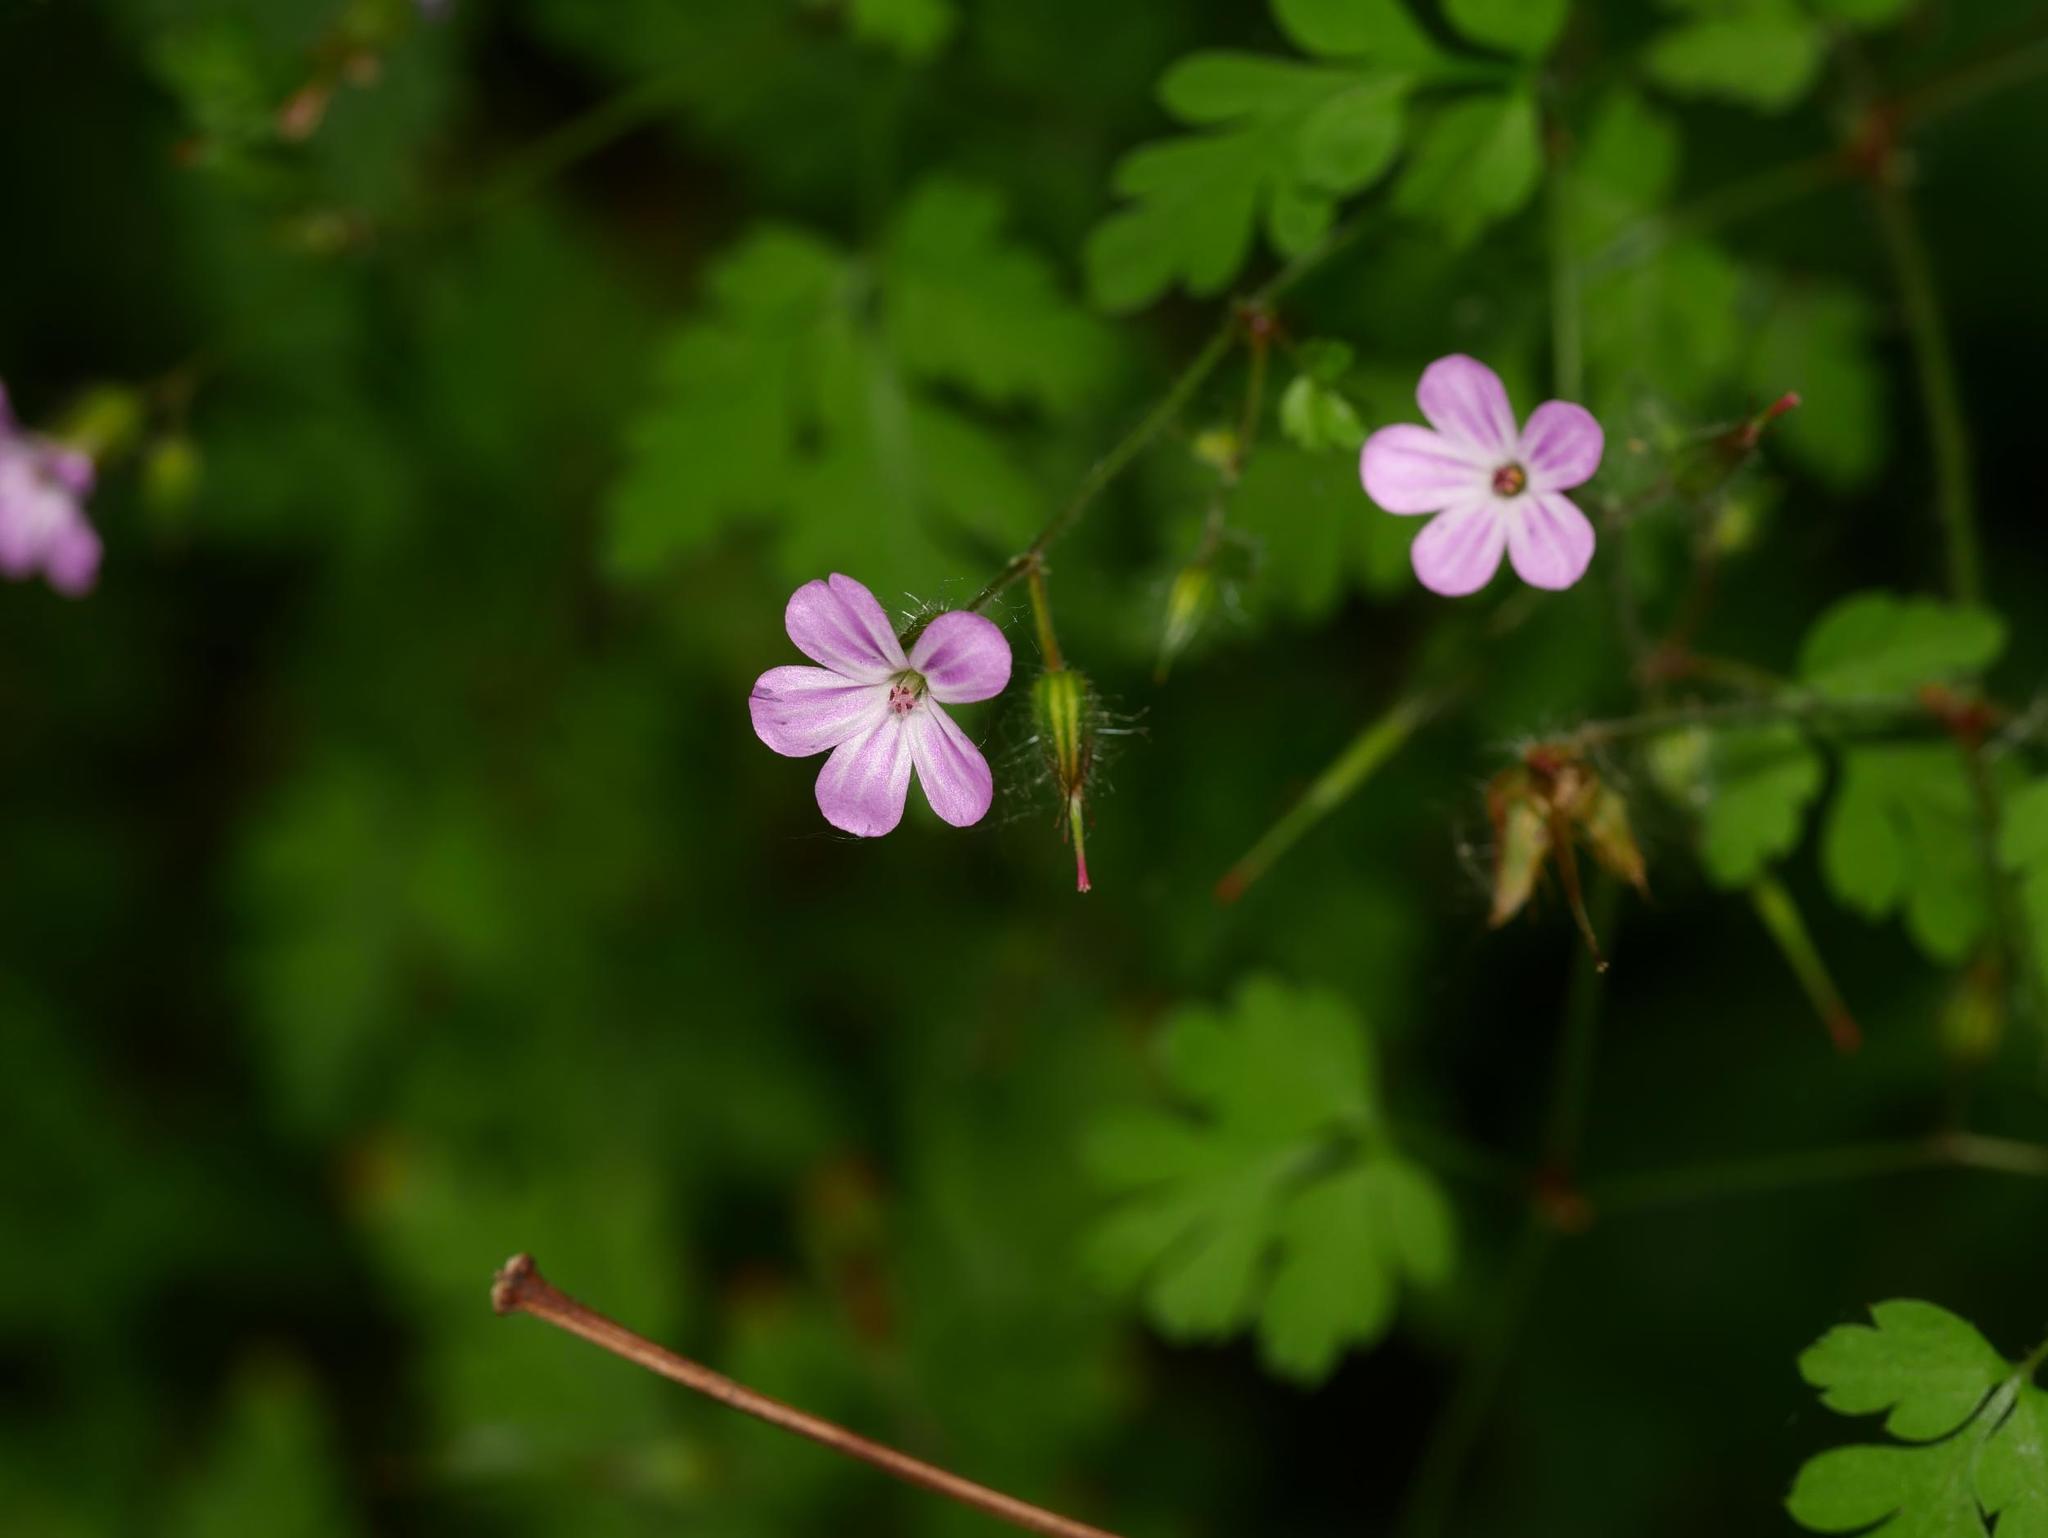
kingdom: Plantae
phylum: Tracheophyta
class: Magnoliopsida
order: Geraniales
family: Geraniaceae
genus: Geranium
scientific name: Geranium robertianum
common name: Herb-robert
